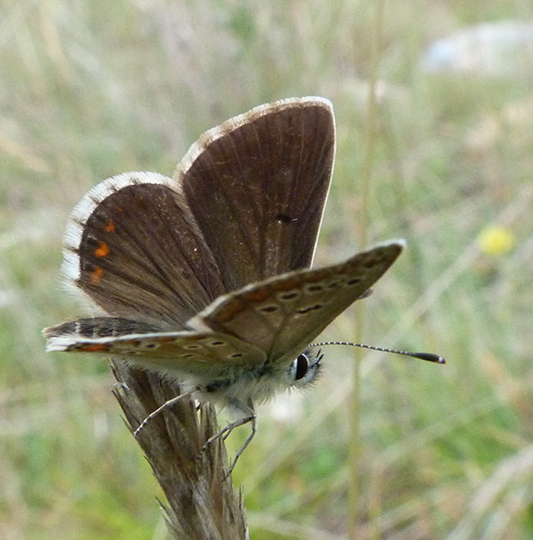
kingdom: Animalia
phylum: Arthropoda
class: Insecta
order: Lepidoptera
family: Lycaenidae
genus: Aricia
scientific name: Aricia montensis
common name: Mountain argus
